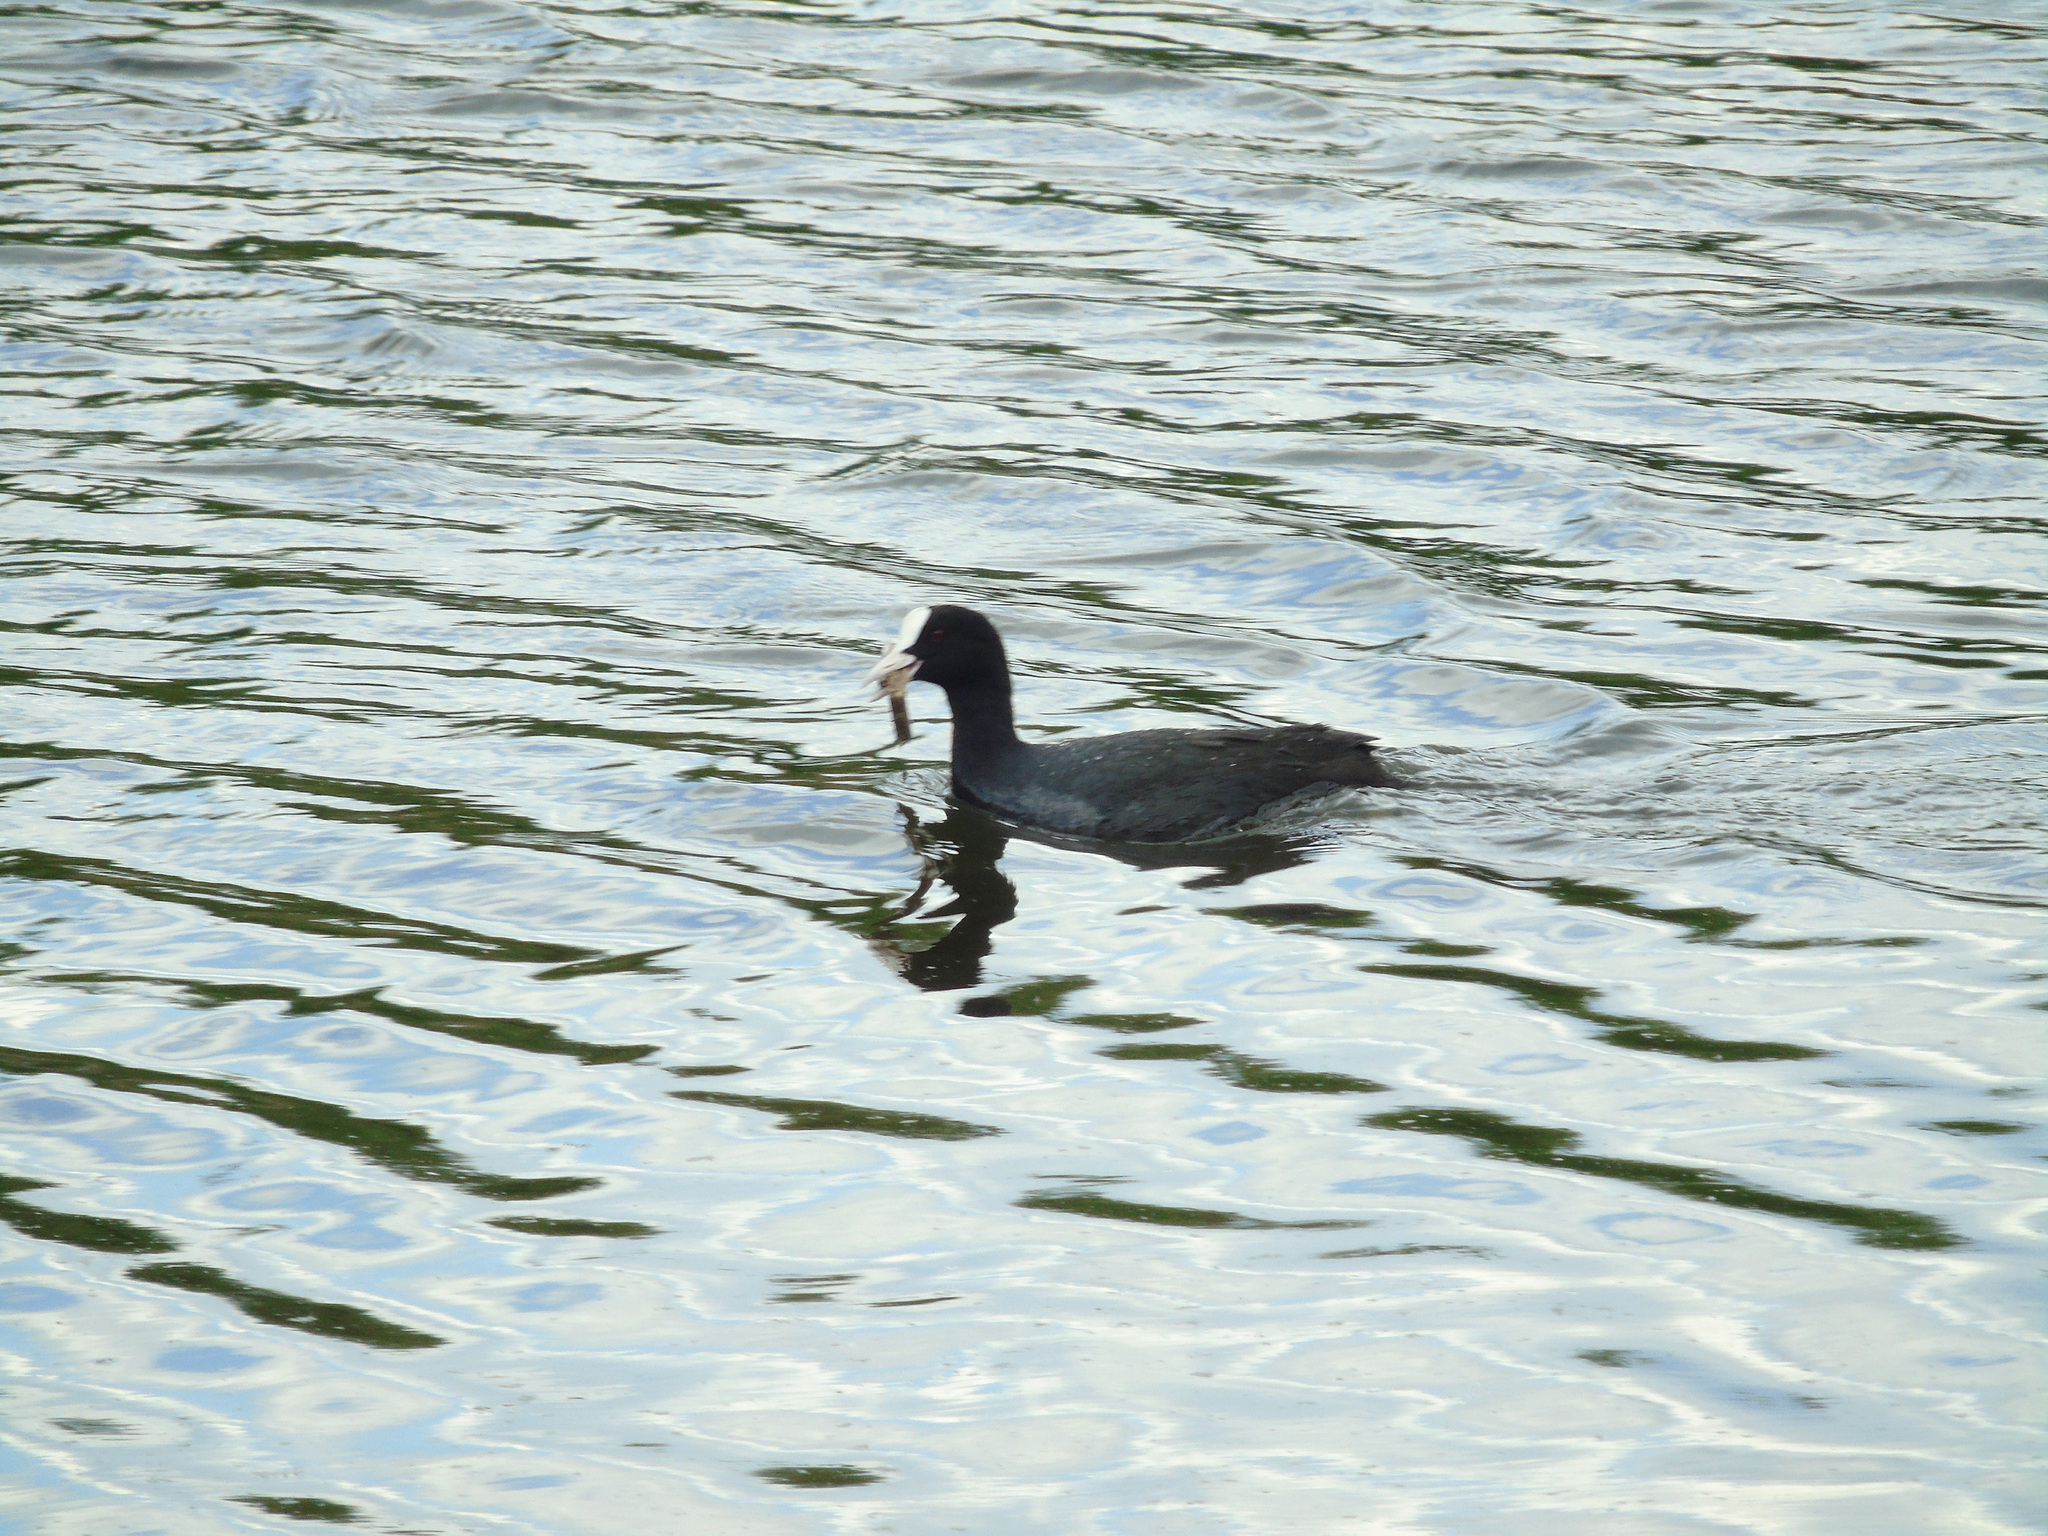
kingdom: Animalia
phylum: Chordata
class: Aves
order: Gruiformes
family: Rallidae
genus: Fulica
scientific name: Fulica atra
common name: Eurasian coot
